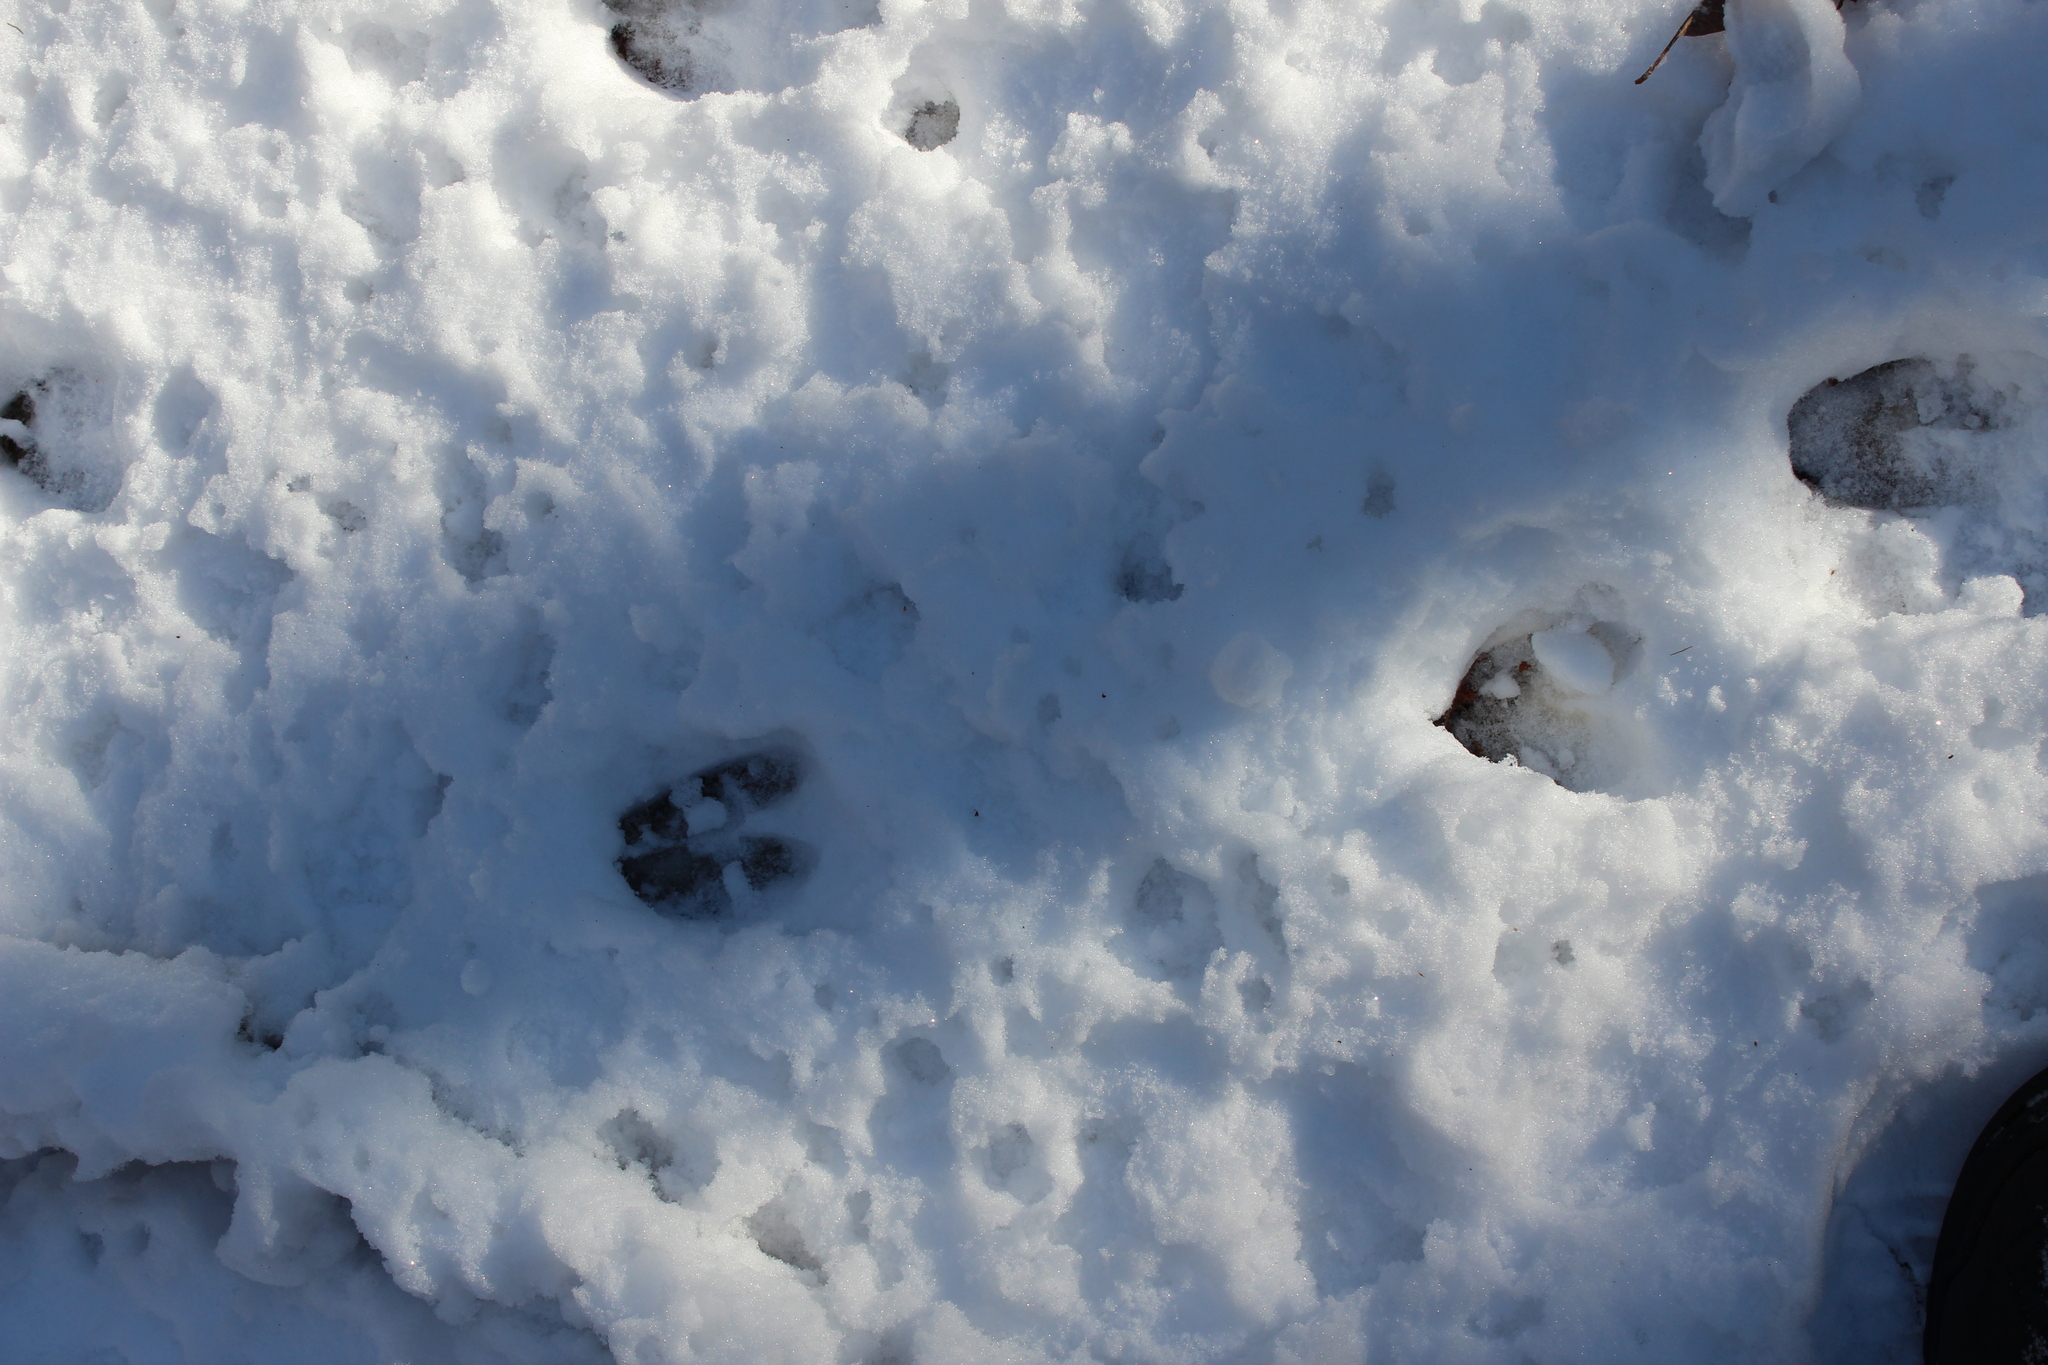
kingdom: Animalia
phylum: Chordata
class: Mammalia
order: Artiodactyla
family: Cervidae
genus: Odocoileus
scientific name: Odocoileus virginianus
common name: White-tailed deer
